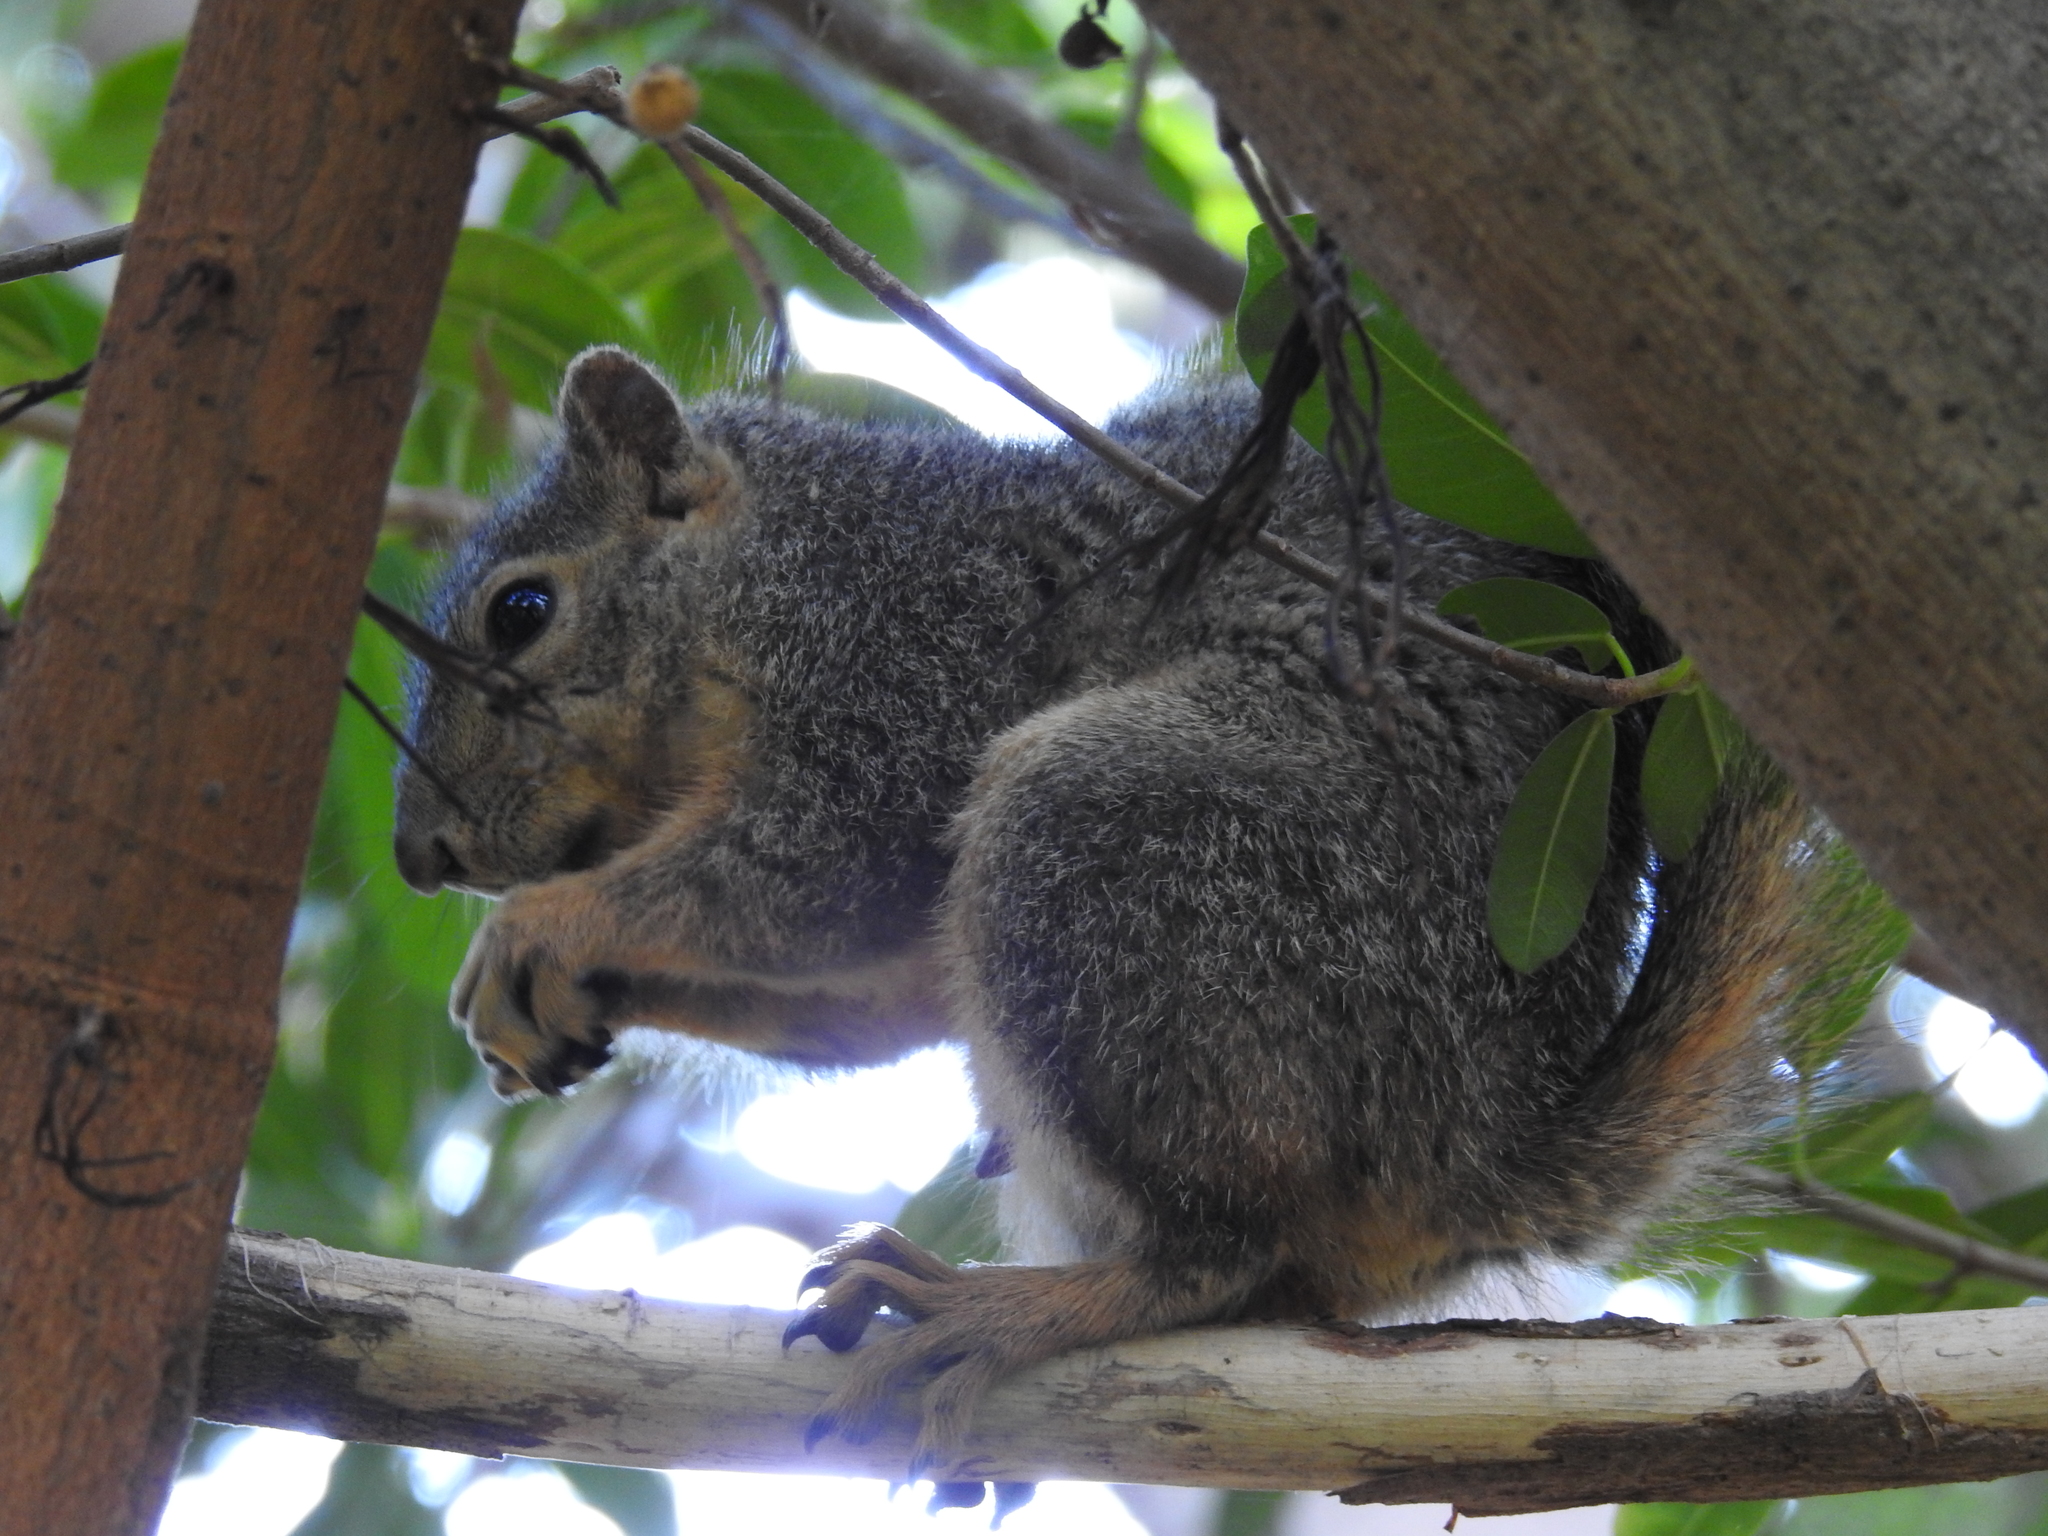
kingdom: Animalia
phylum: Chordata
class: Mammalia
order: Rodentia
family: Sciuridae
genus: Sciurus
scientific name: Sciurus niger
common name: Fox squirrel
